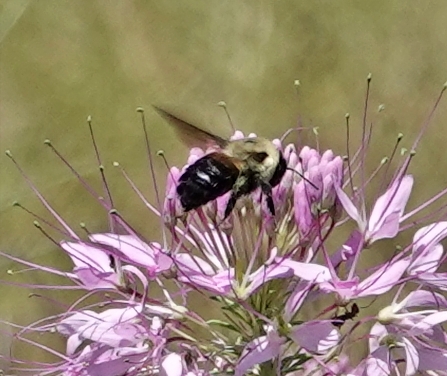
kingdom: Animalia
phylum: Arthropoda
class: Insecta
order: Hymenoptera
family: Apidae
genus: Bombus
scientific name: Bombus griseocollis
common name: Brown-belted bumble bee
